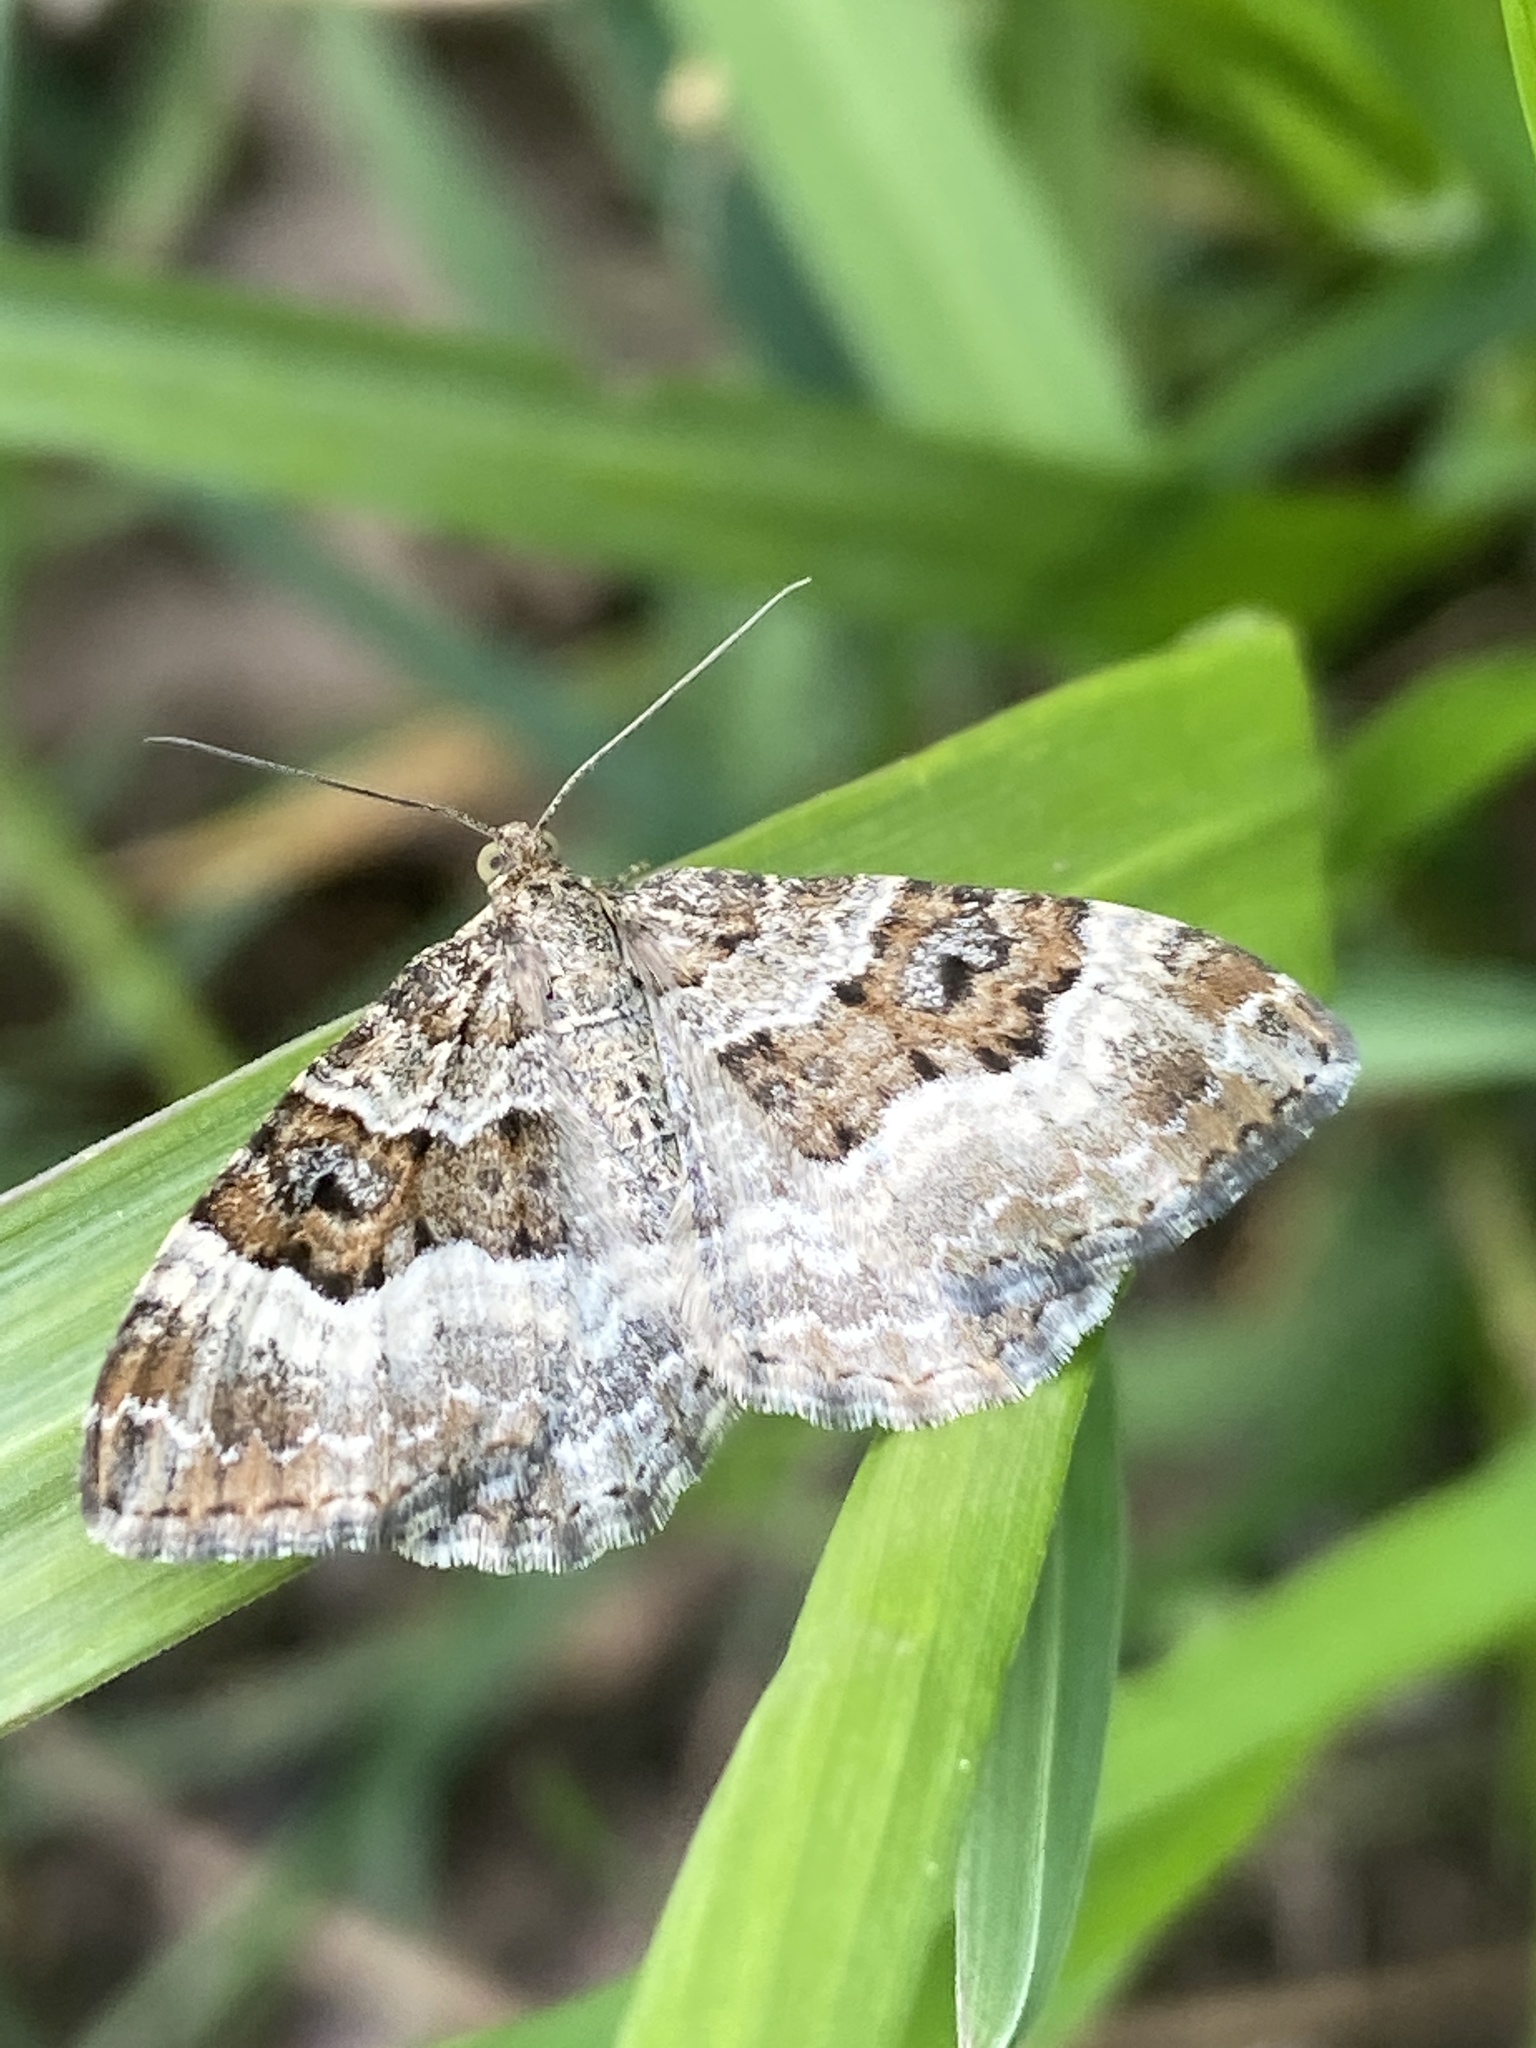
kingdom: Animalia
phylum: Arthropoda
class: Insecta
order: Lepidoptera
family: Geometridae
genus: Epirrhoe
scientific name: Epirrhoe alternata
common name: Common carpet
